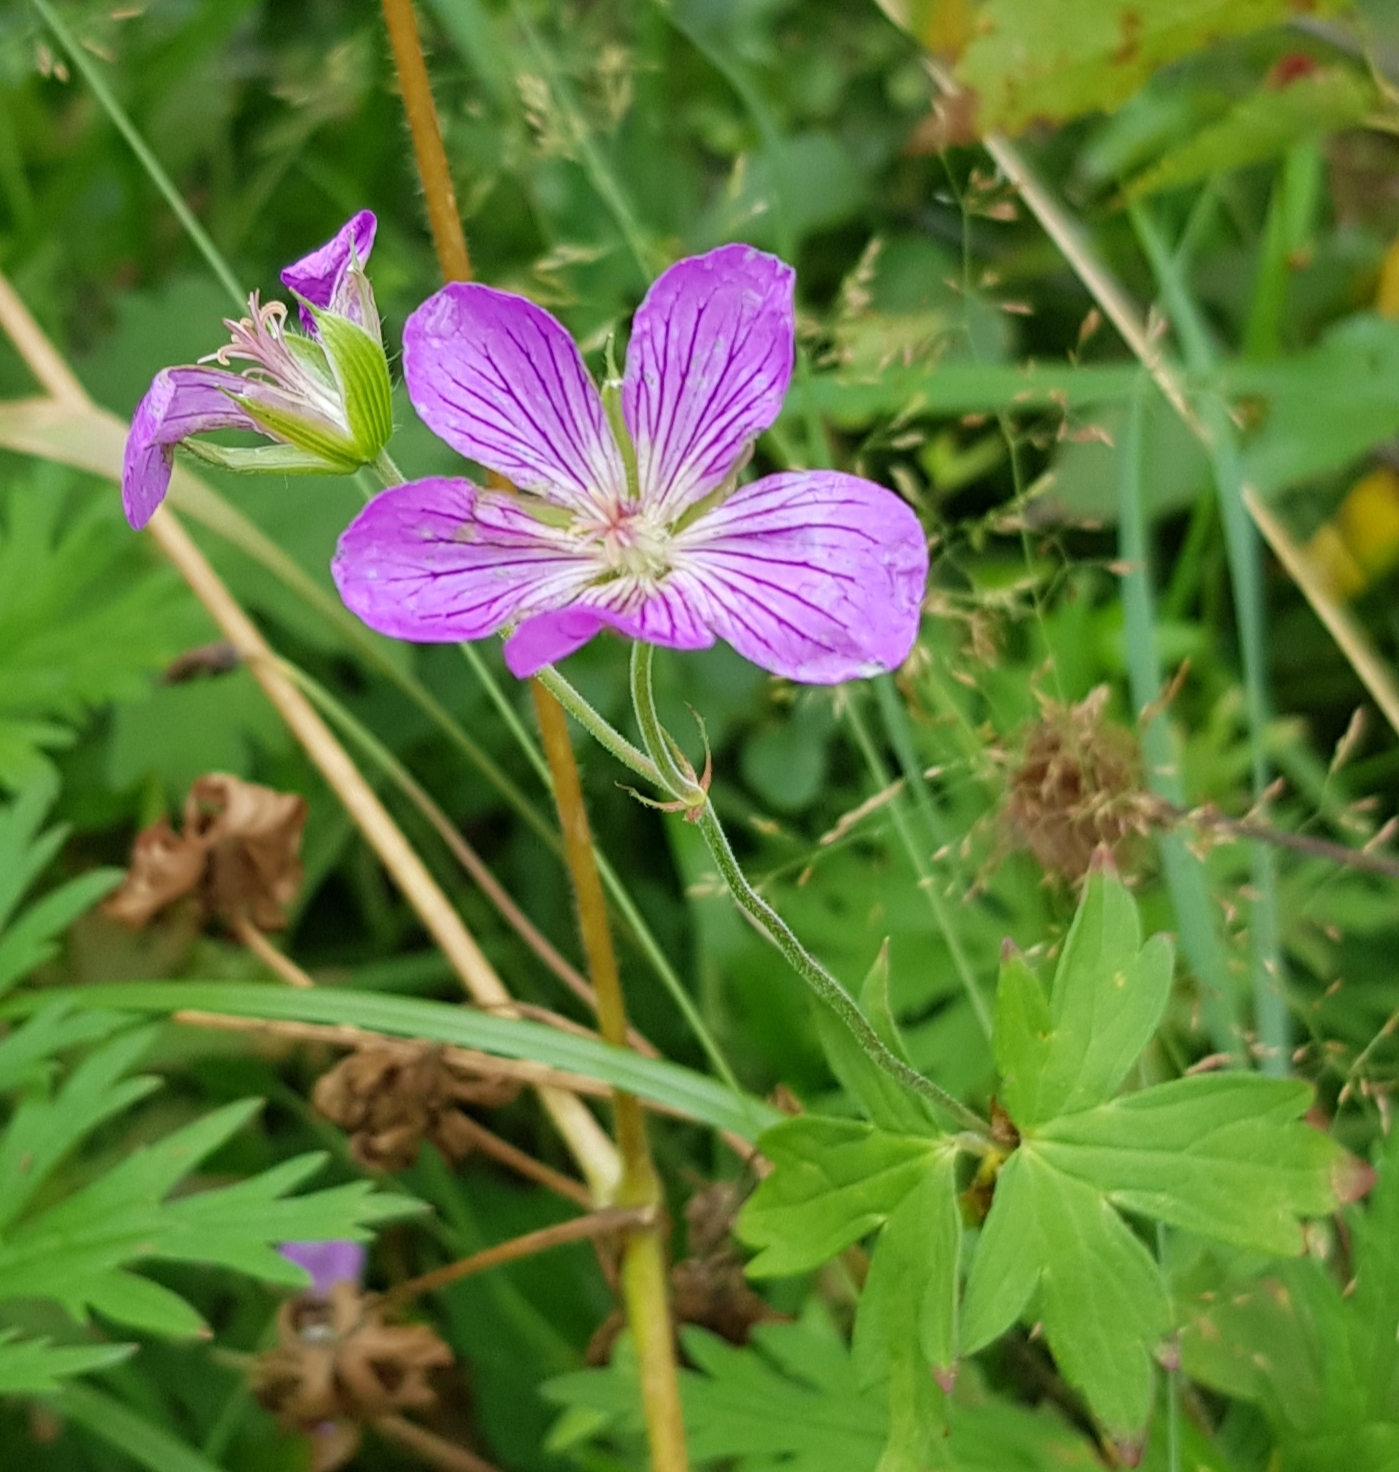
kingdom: Plantae
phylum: Tracheophyta
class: Magnoliopsida
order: Geraniales
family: Geraniaceae
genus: Geranium
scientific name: Geranium collinum
